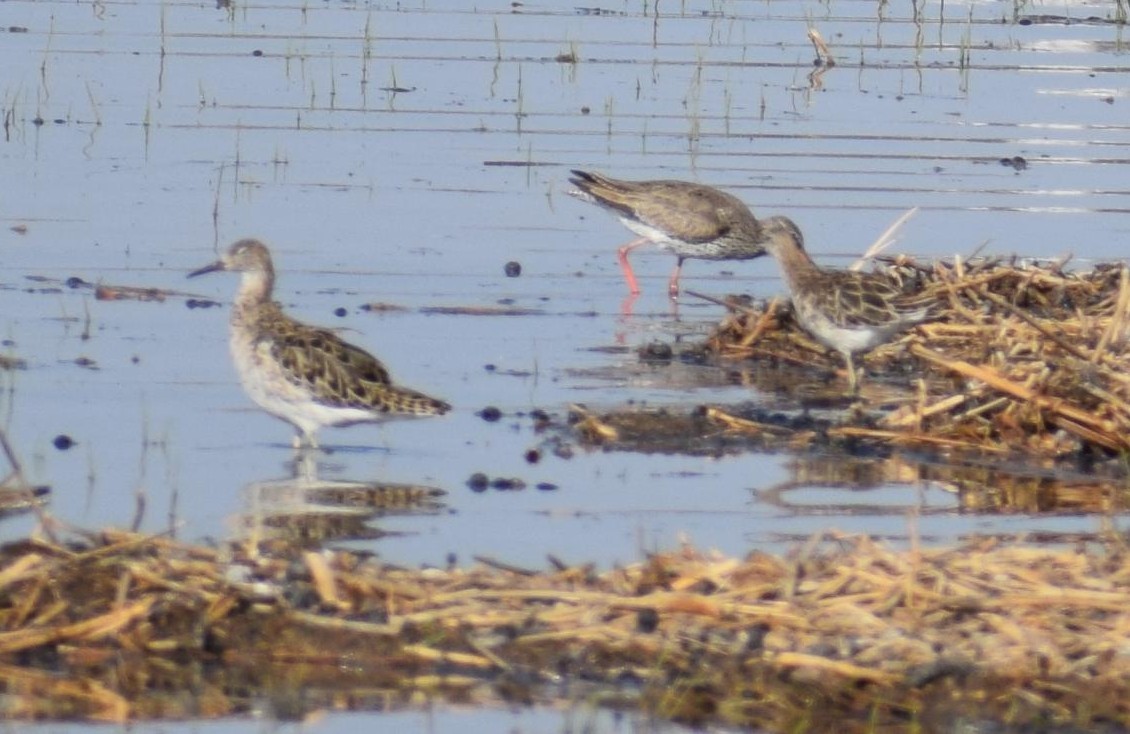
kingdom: Animalia
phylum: Chordata
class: Aves
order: Charadriiformes
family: Scolopacidae
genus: Calidris
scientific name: Calidris pugnax
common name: Ruff
